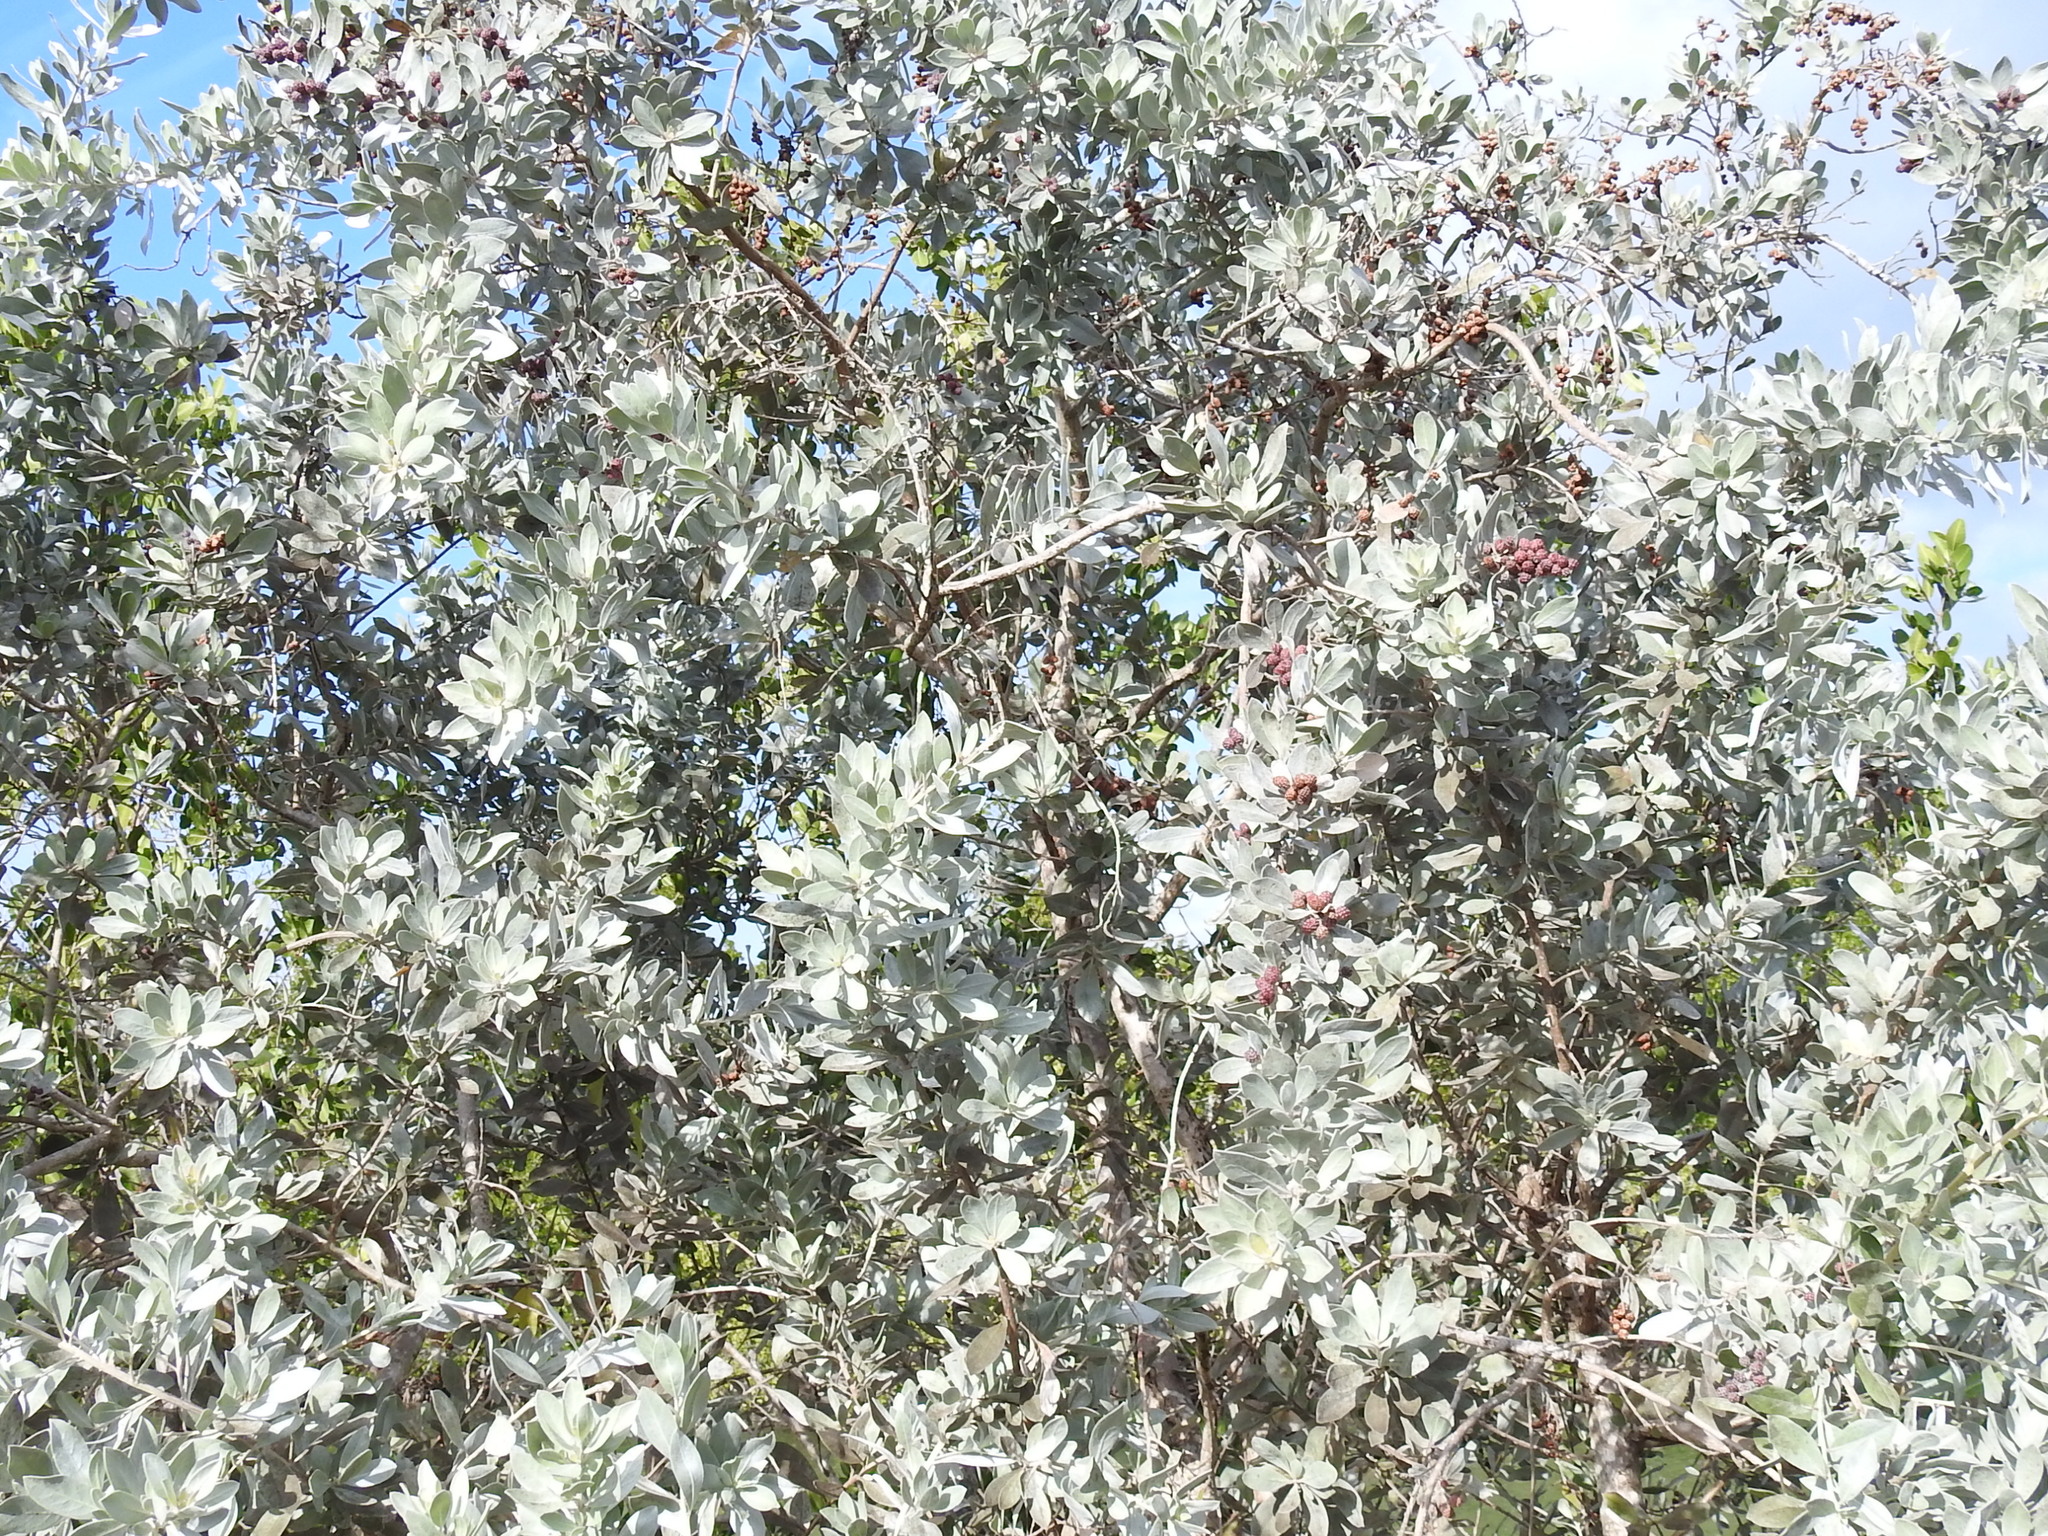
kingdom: Plantae
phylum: Tracheophyta
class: Magnoliopsida
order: Myrtales
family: Combretaceae
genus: Conocarpus
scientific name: Conocarpus erectus
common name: Button mangrove
